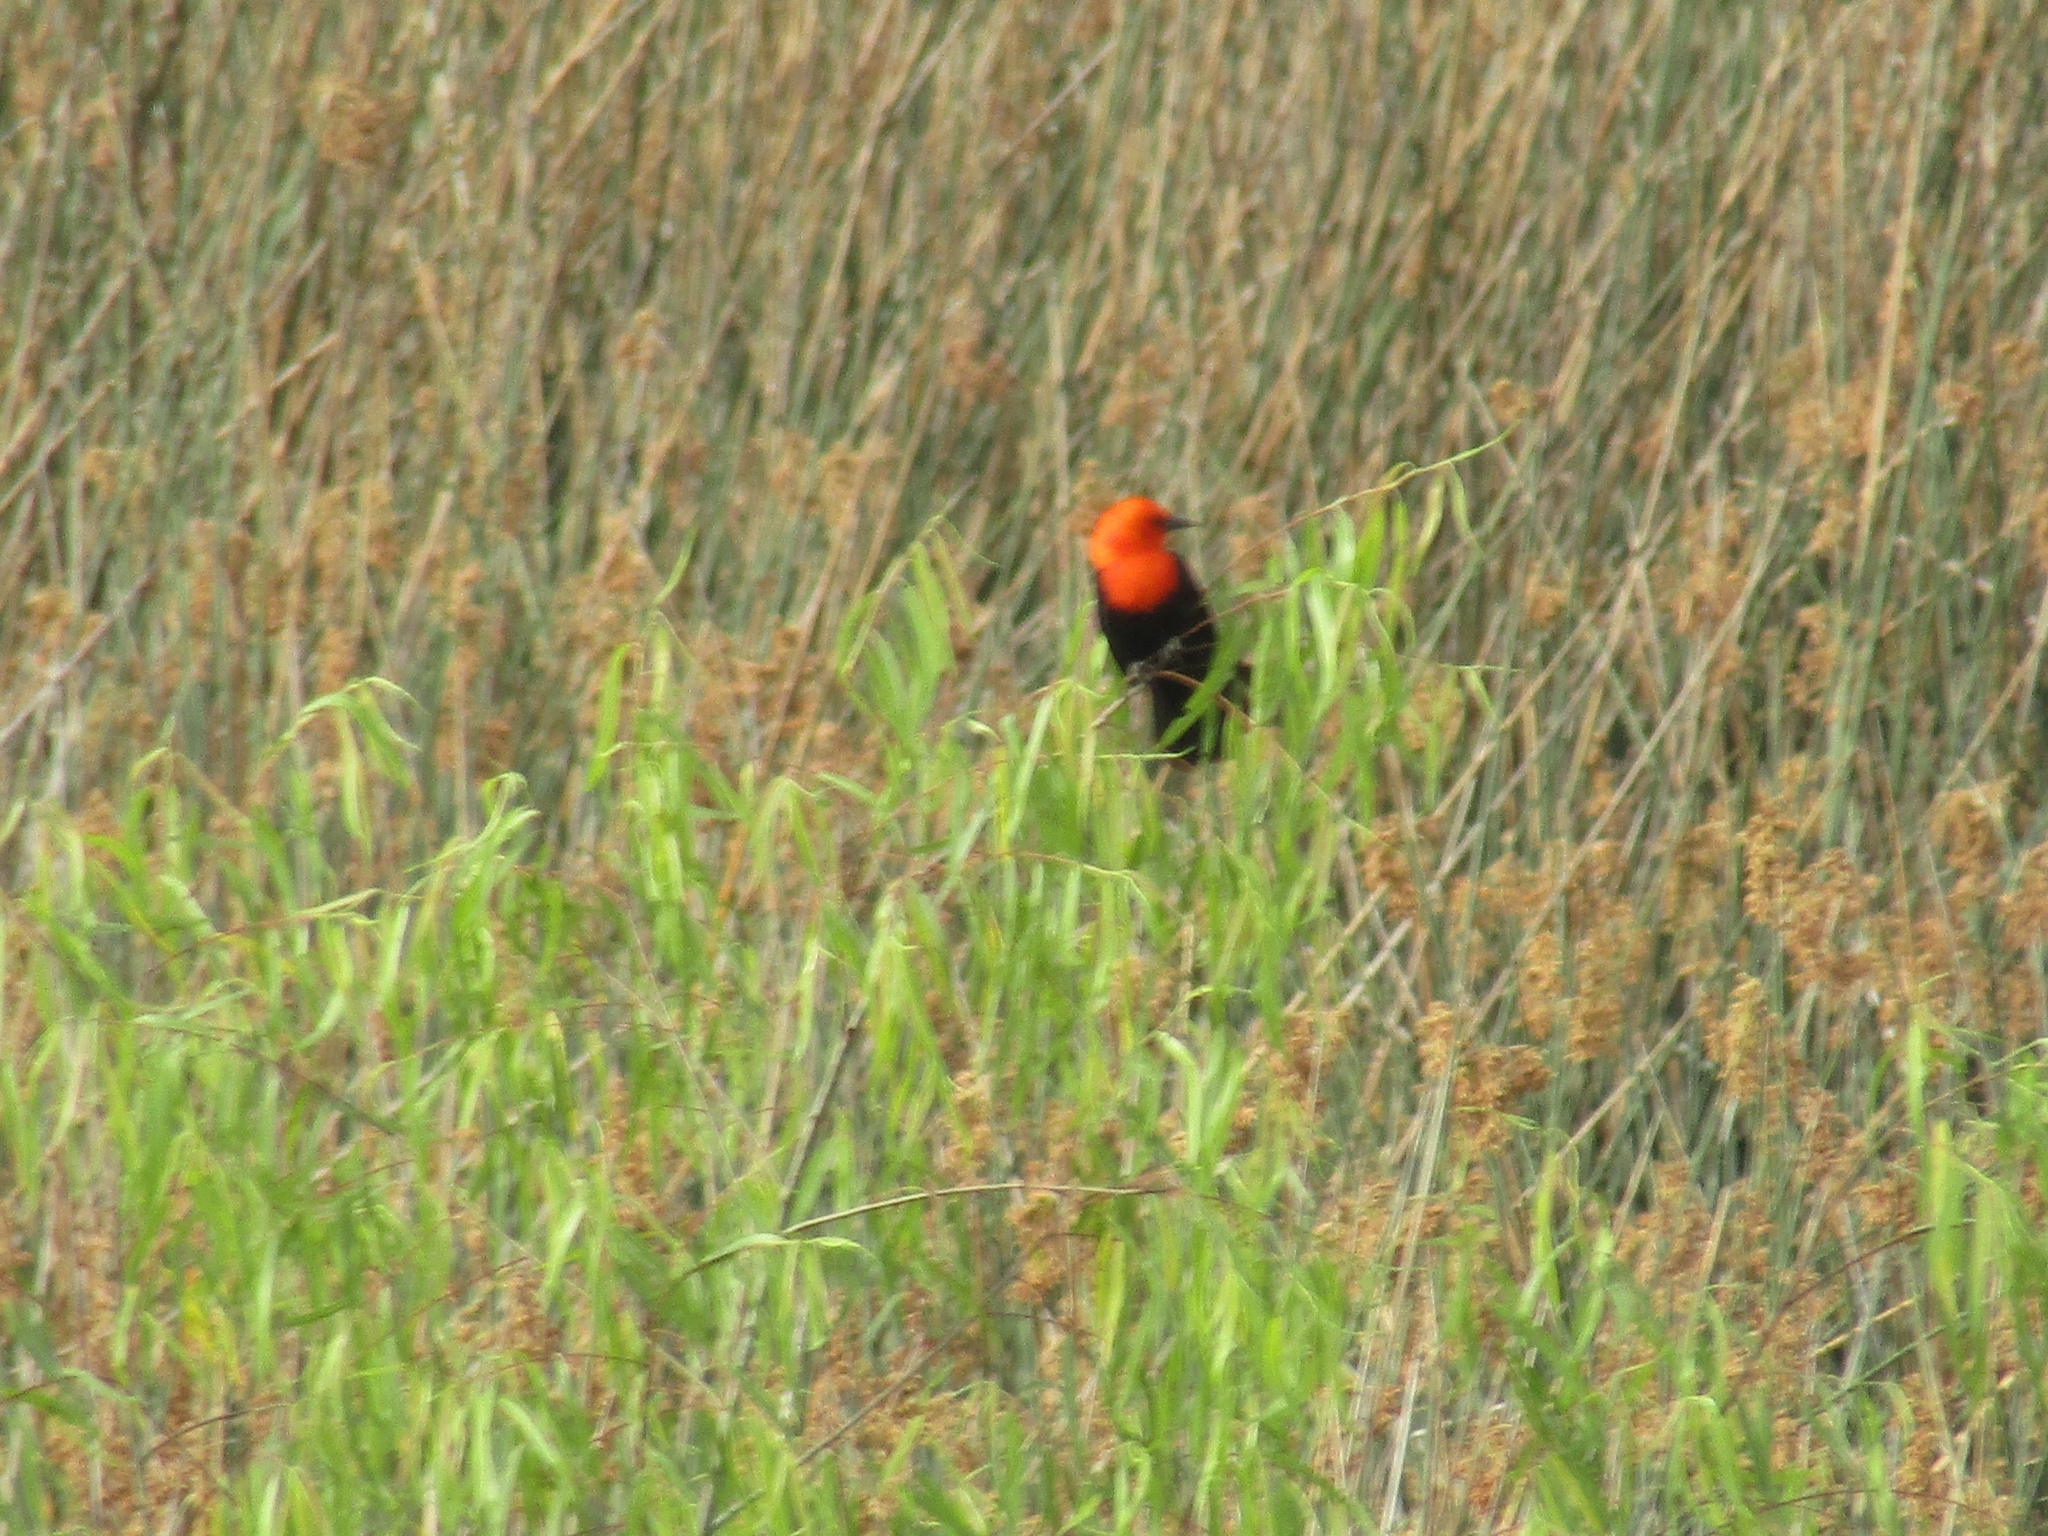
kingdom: Animalia
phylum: Chordata
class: Aves
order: Passeriformes
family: Icteridae
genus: Amblyramphus
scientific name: Amblyramphus holosericeus
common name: Scarlet-headed blackbird
